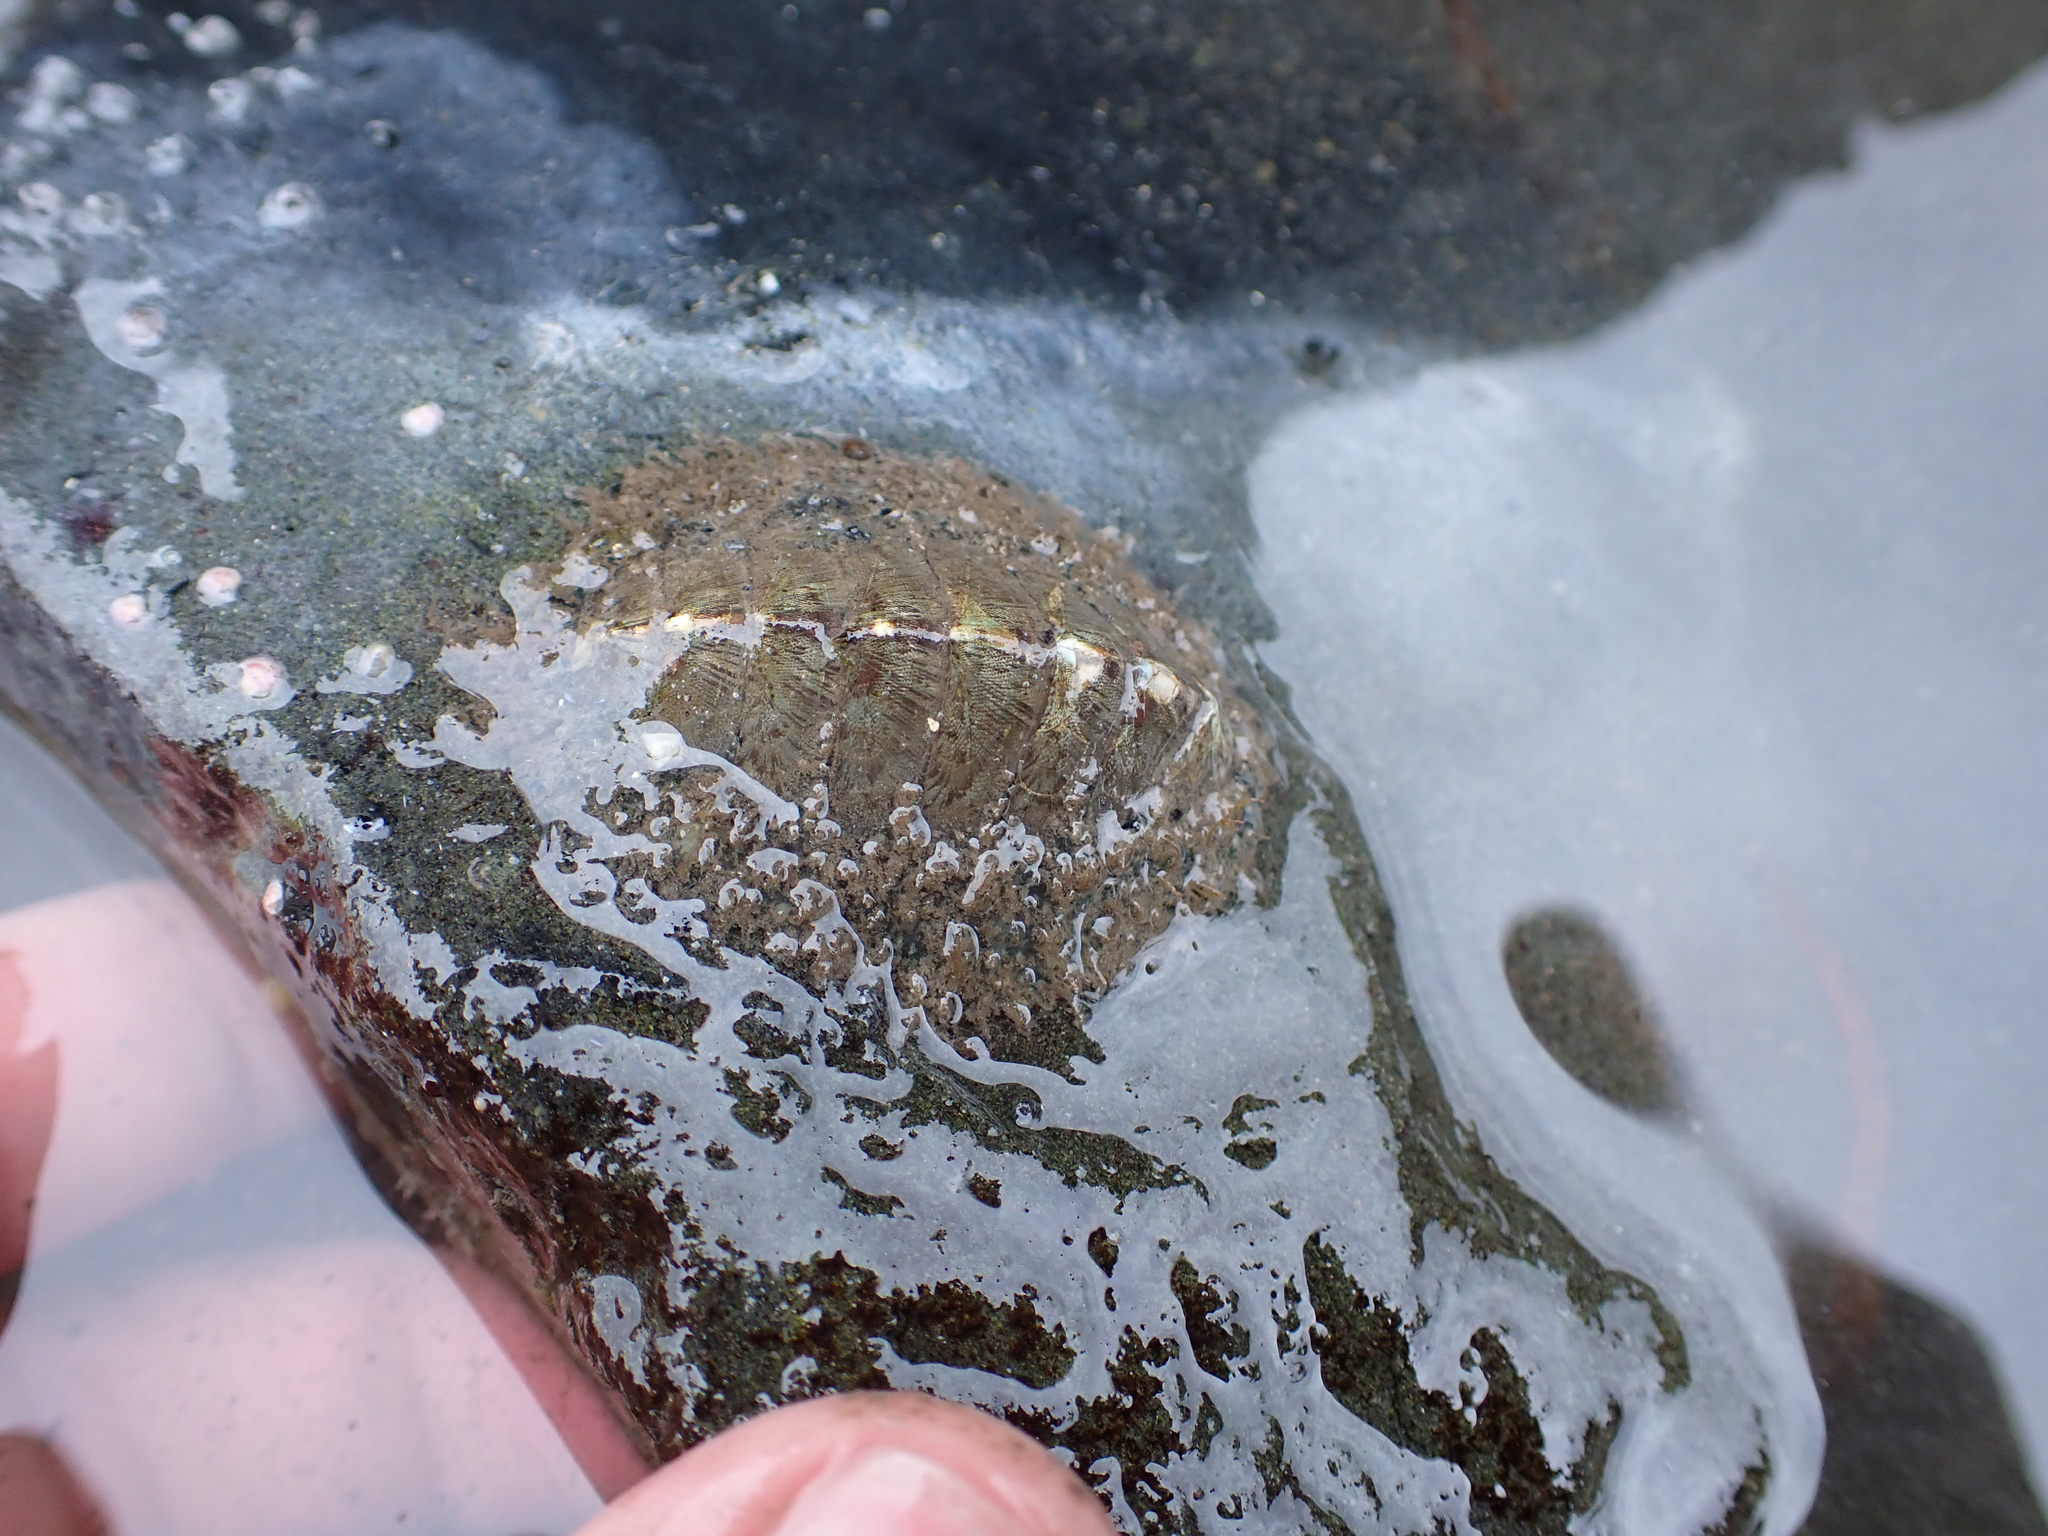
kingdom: Animalia
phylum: Mollusca
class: Polyplacophora
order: Chitonida
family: Mopaliidae
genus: Mopalia
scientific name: Mopalia lignosa
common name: Woody chiton
